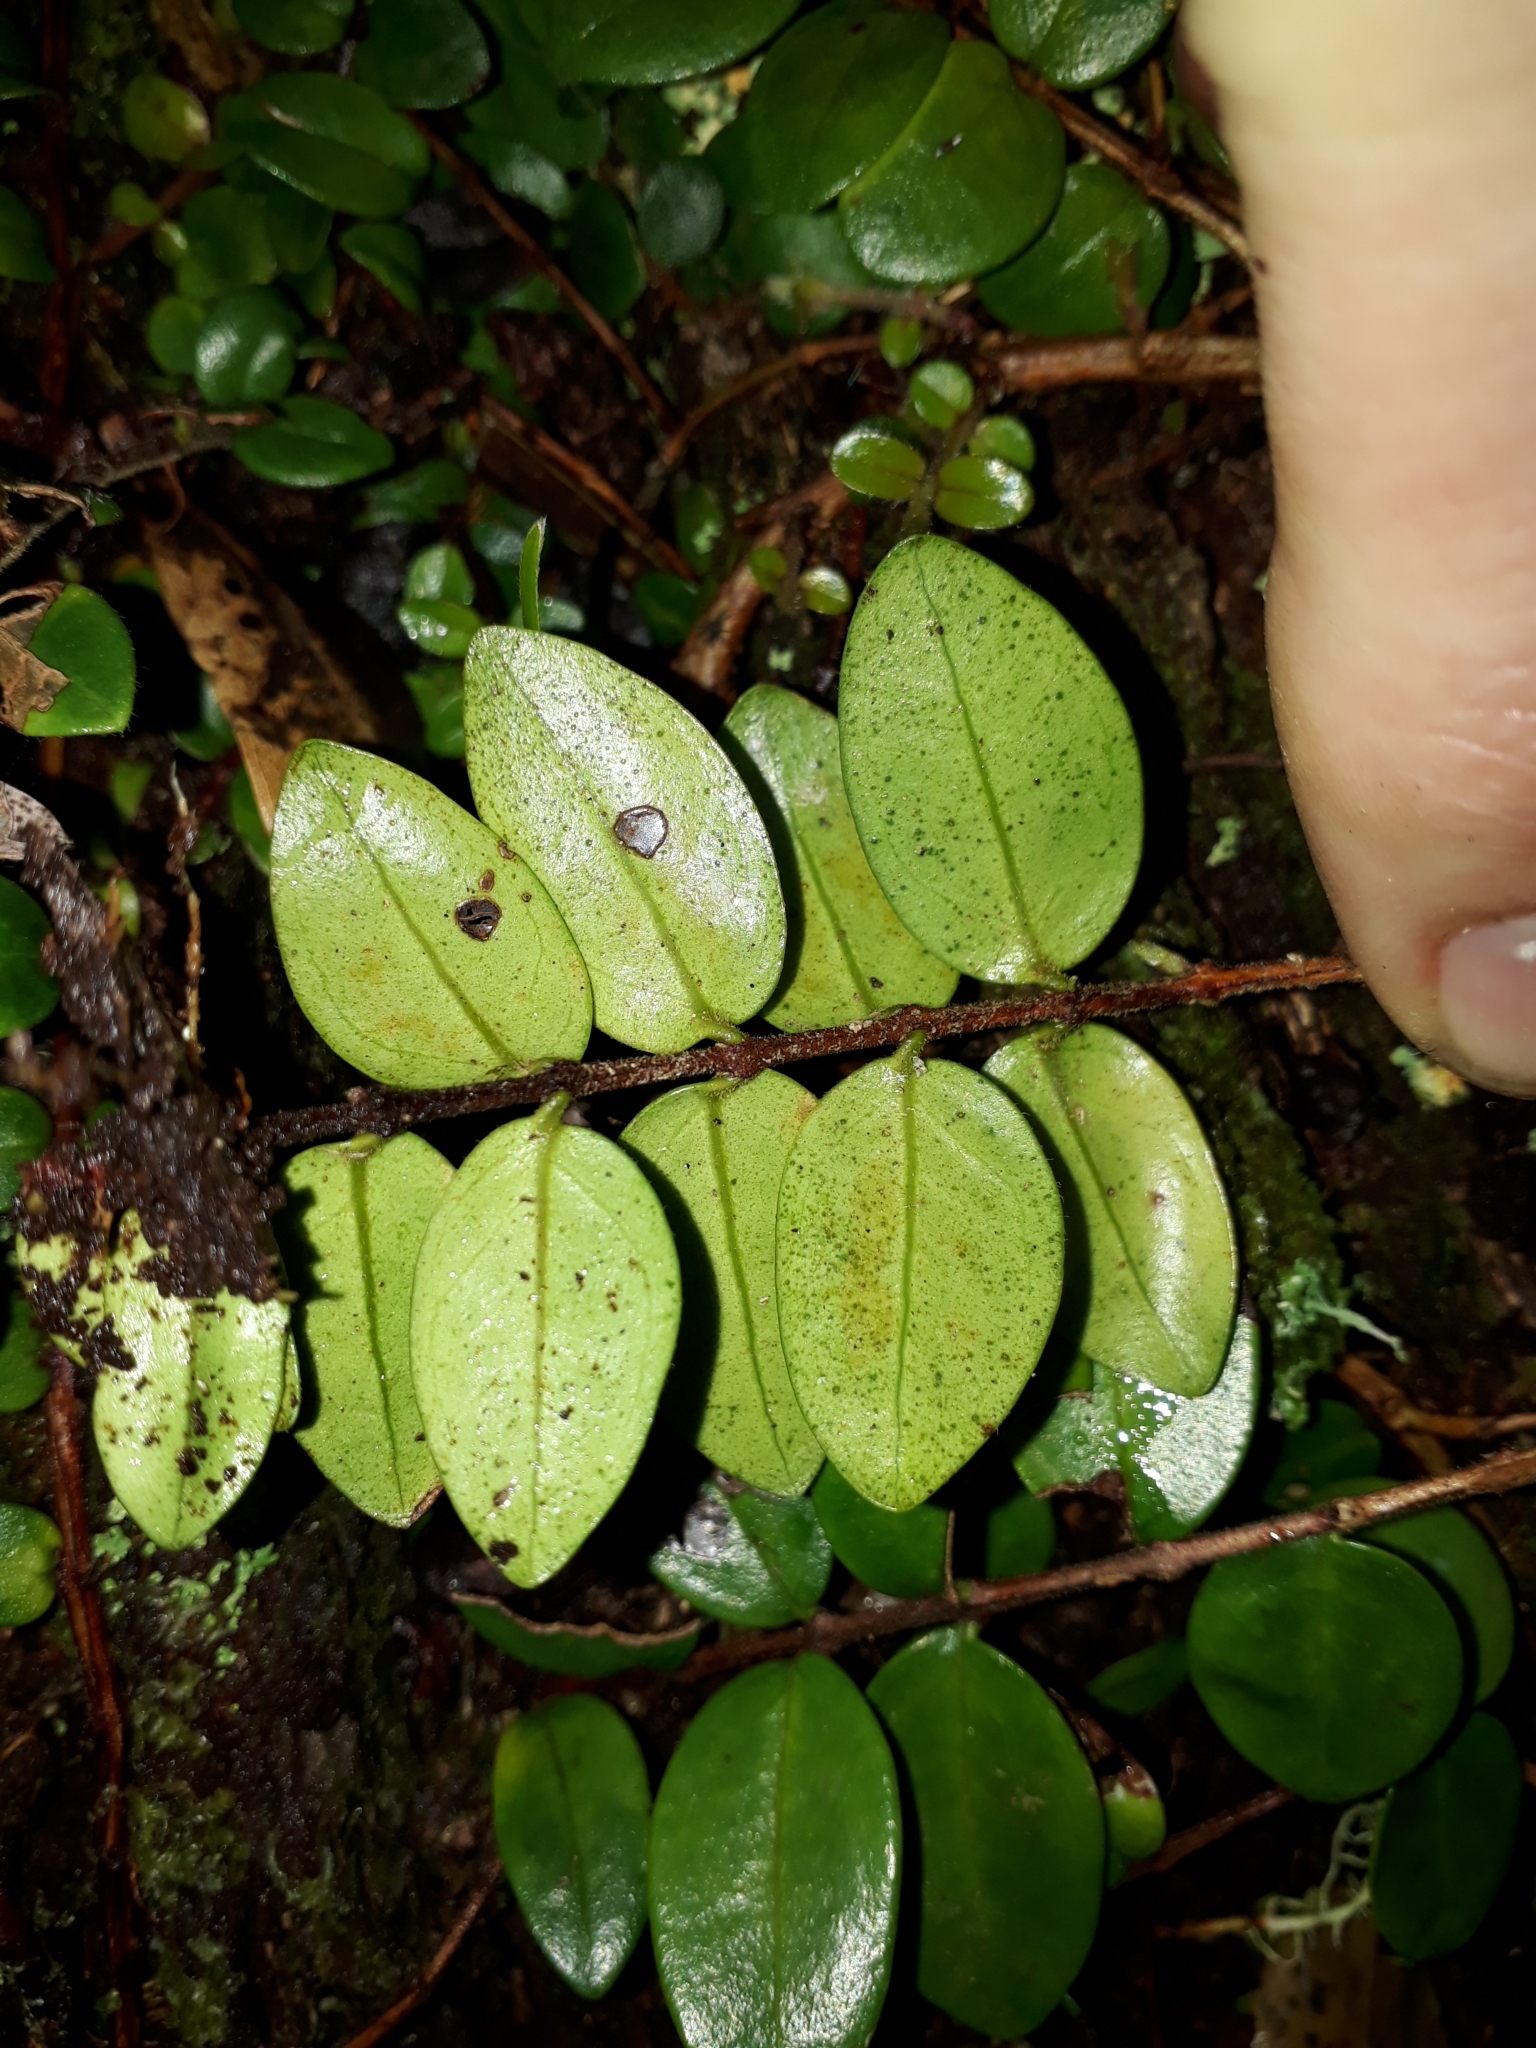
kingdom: Plantae
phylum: Tracheophyta
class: Magnoliopsida
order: Myrtales
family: Myrtaceae
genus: Metrosideros
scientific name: Metrosideros carminea
